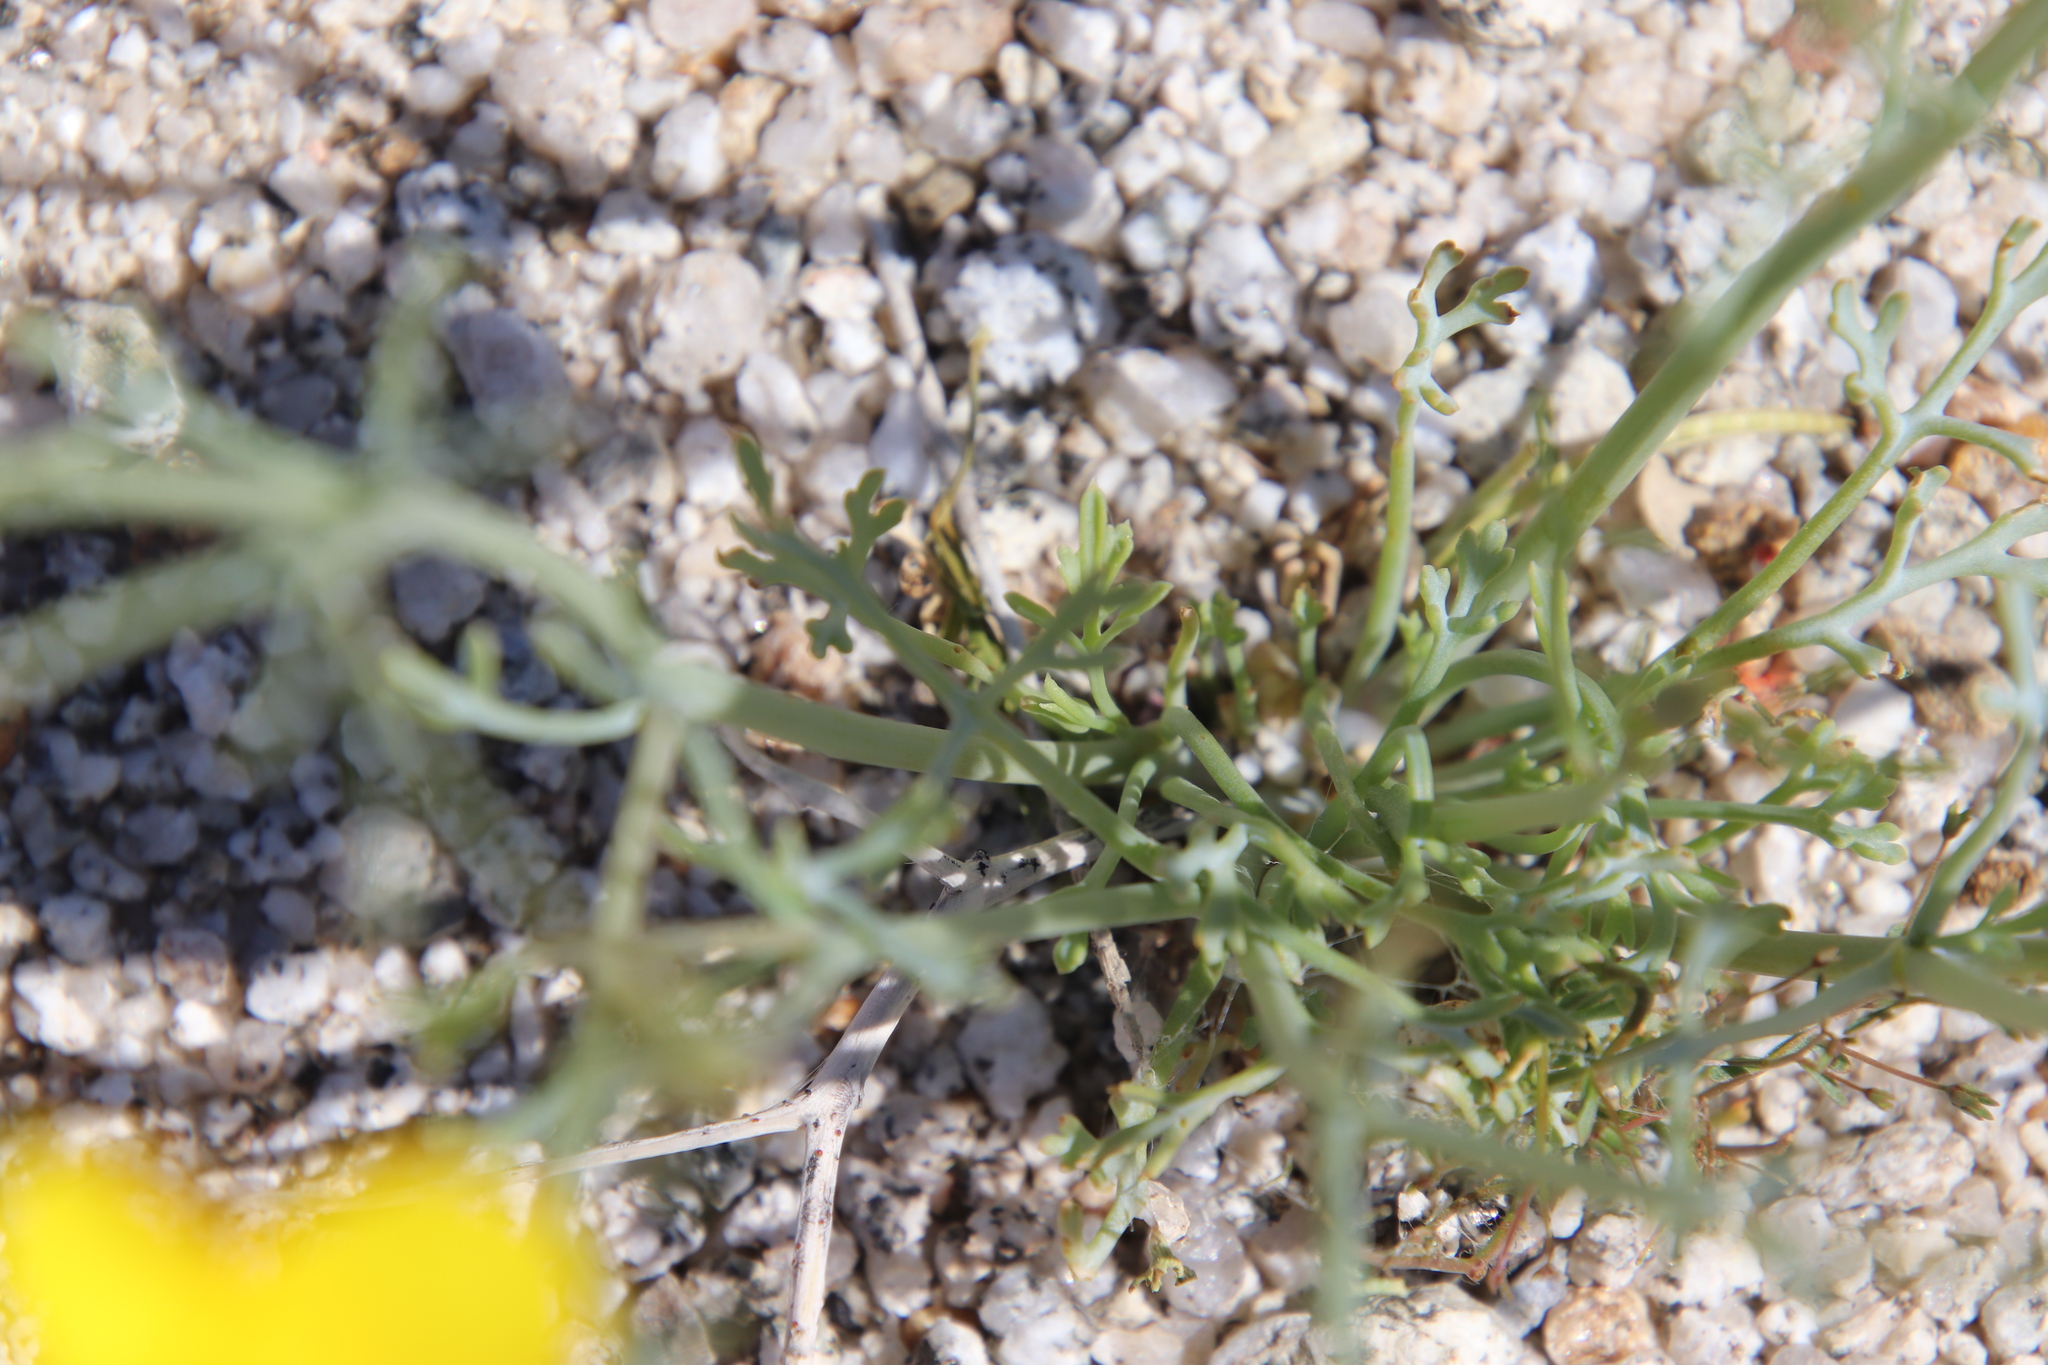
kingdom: Plantae
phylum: Tracheophyta
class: Magnoliopsida
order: Ranunculales
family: Papaveraceae
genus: Eschscholzia
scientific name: Eschscholzia parishii
